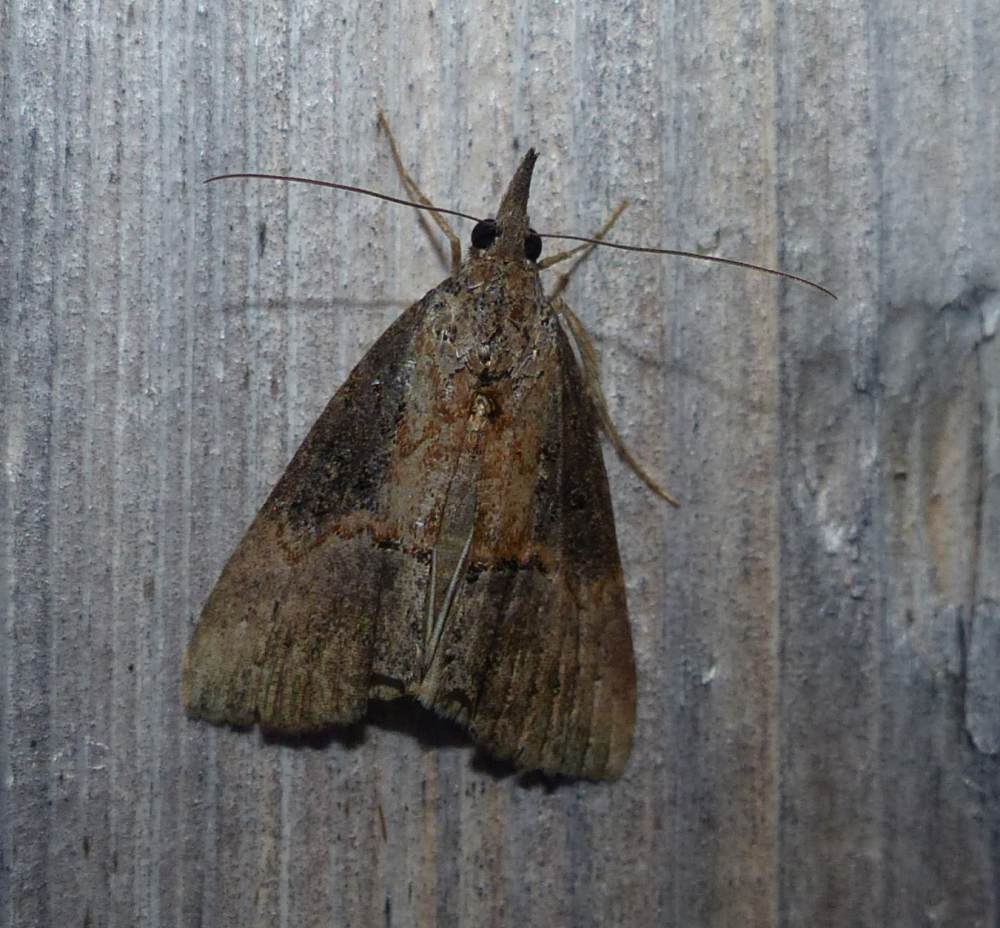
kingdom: Animalia
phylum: Arthropoda
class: Insecta
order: Lepidoptera
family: Erebidae
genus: Hypena
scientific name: Hypena scabra
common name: Green cloverworm
